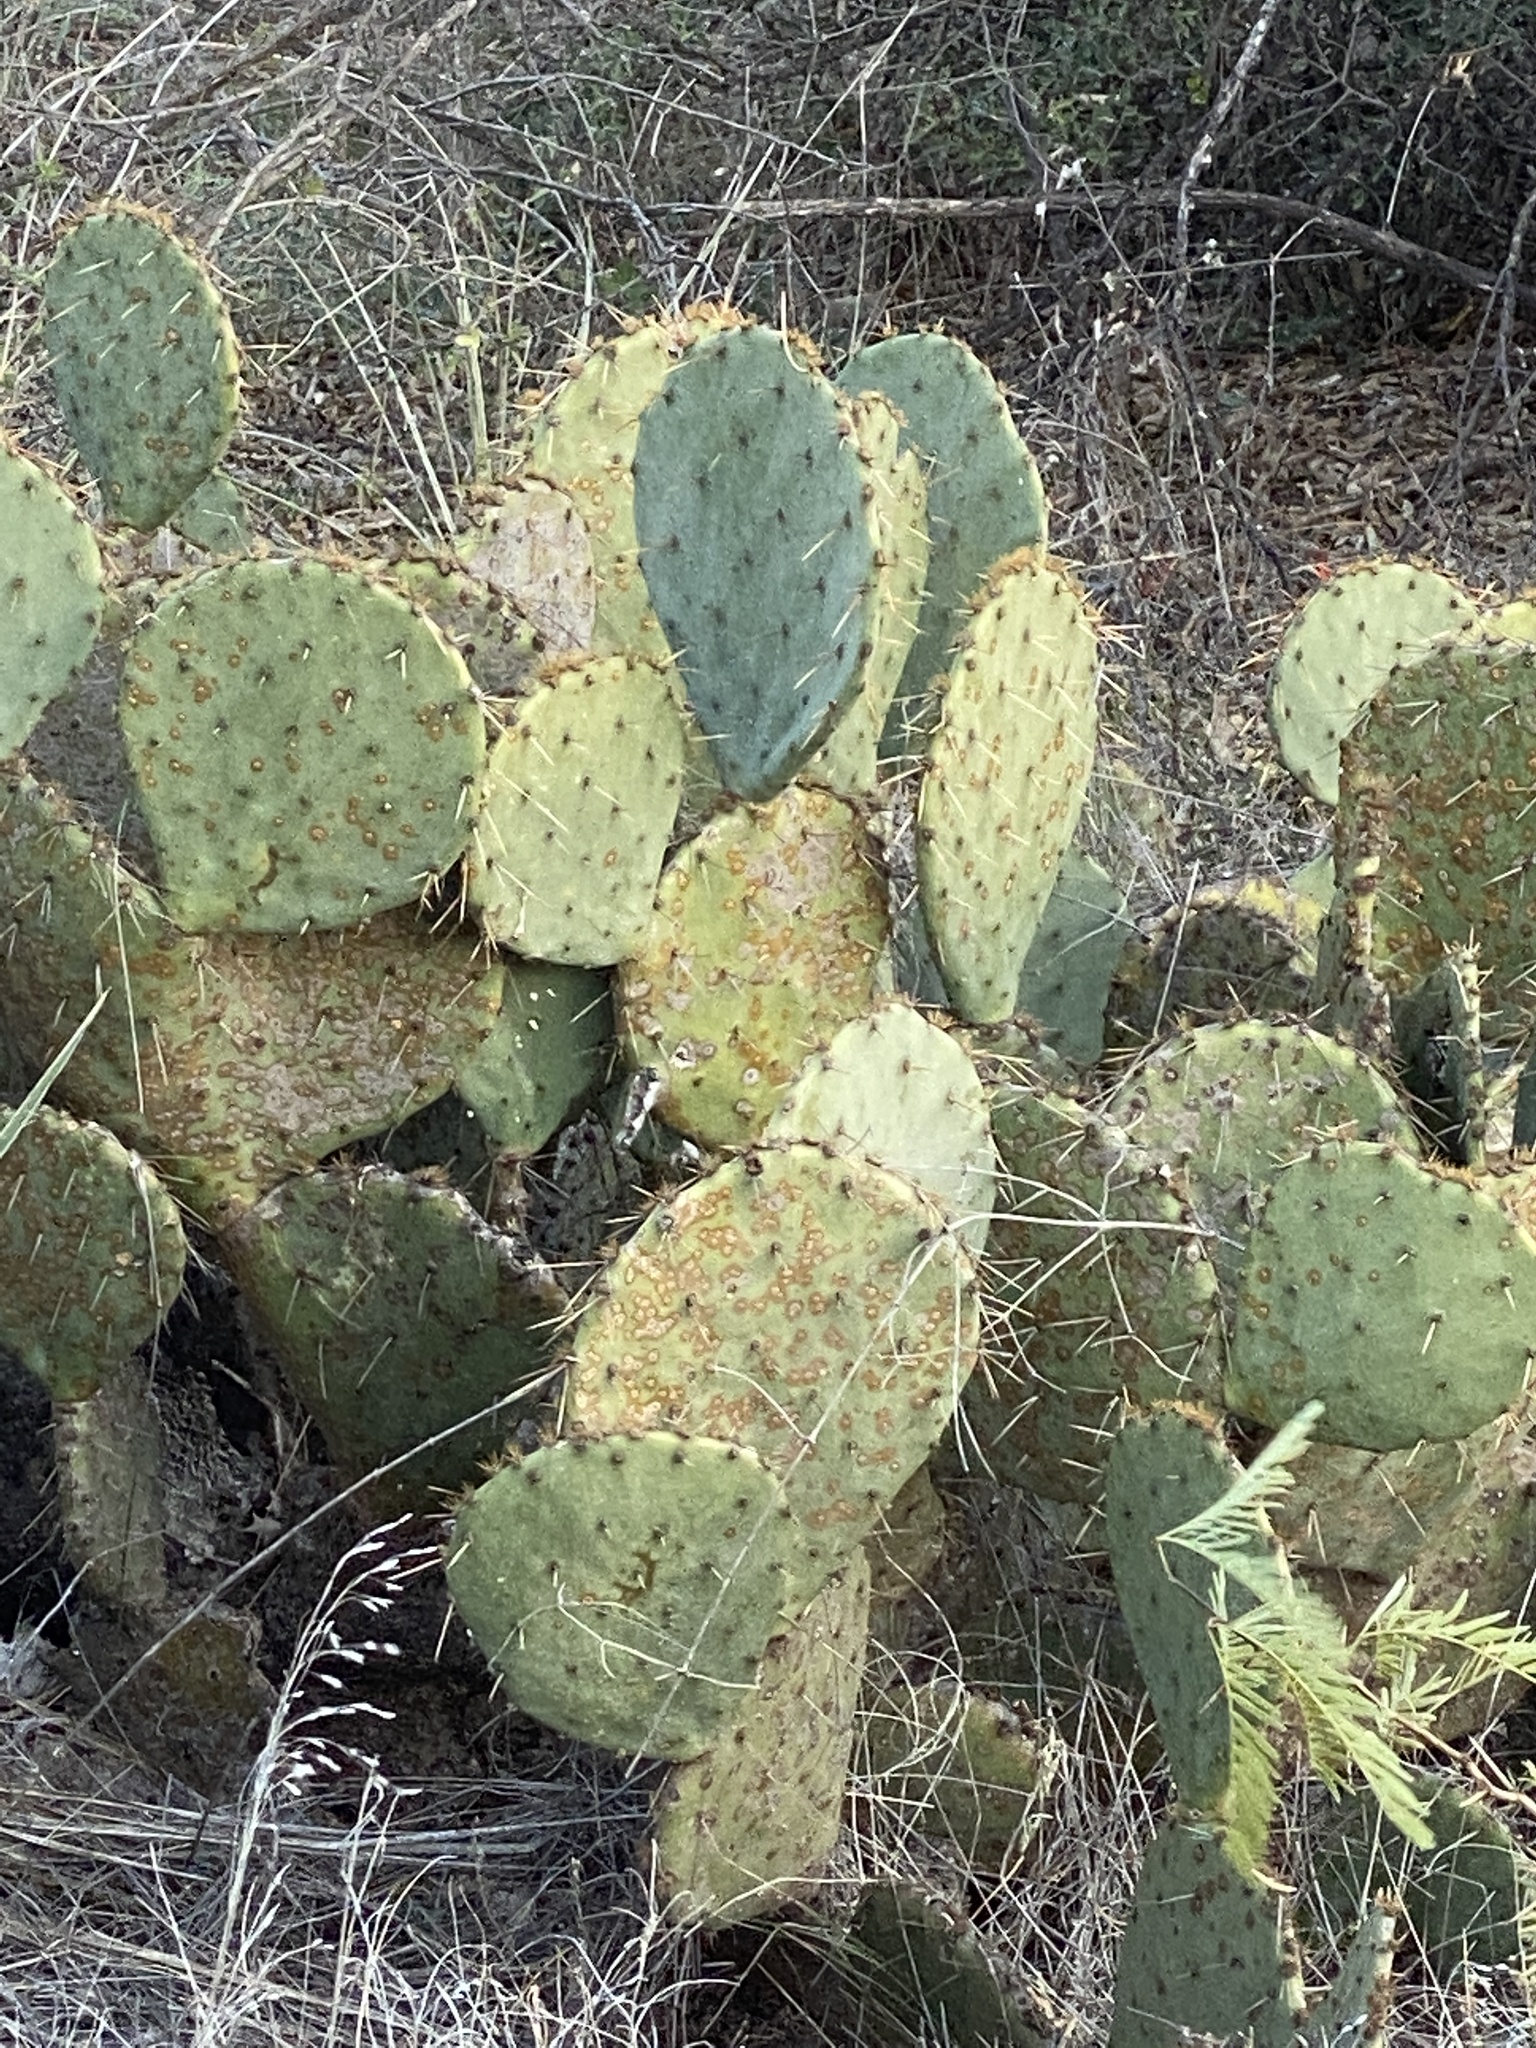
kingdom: Plantae
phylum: Tracheophyta
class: Magnoliopsida
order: Caryophyllales
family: Cactaceae
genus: Opuntia
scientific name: Opuntia engelmannii
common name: Cactus-apple
